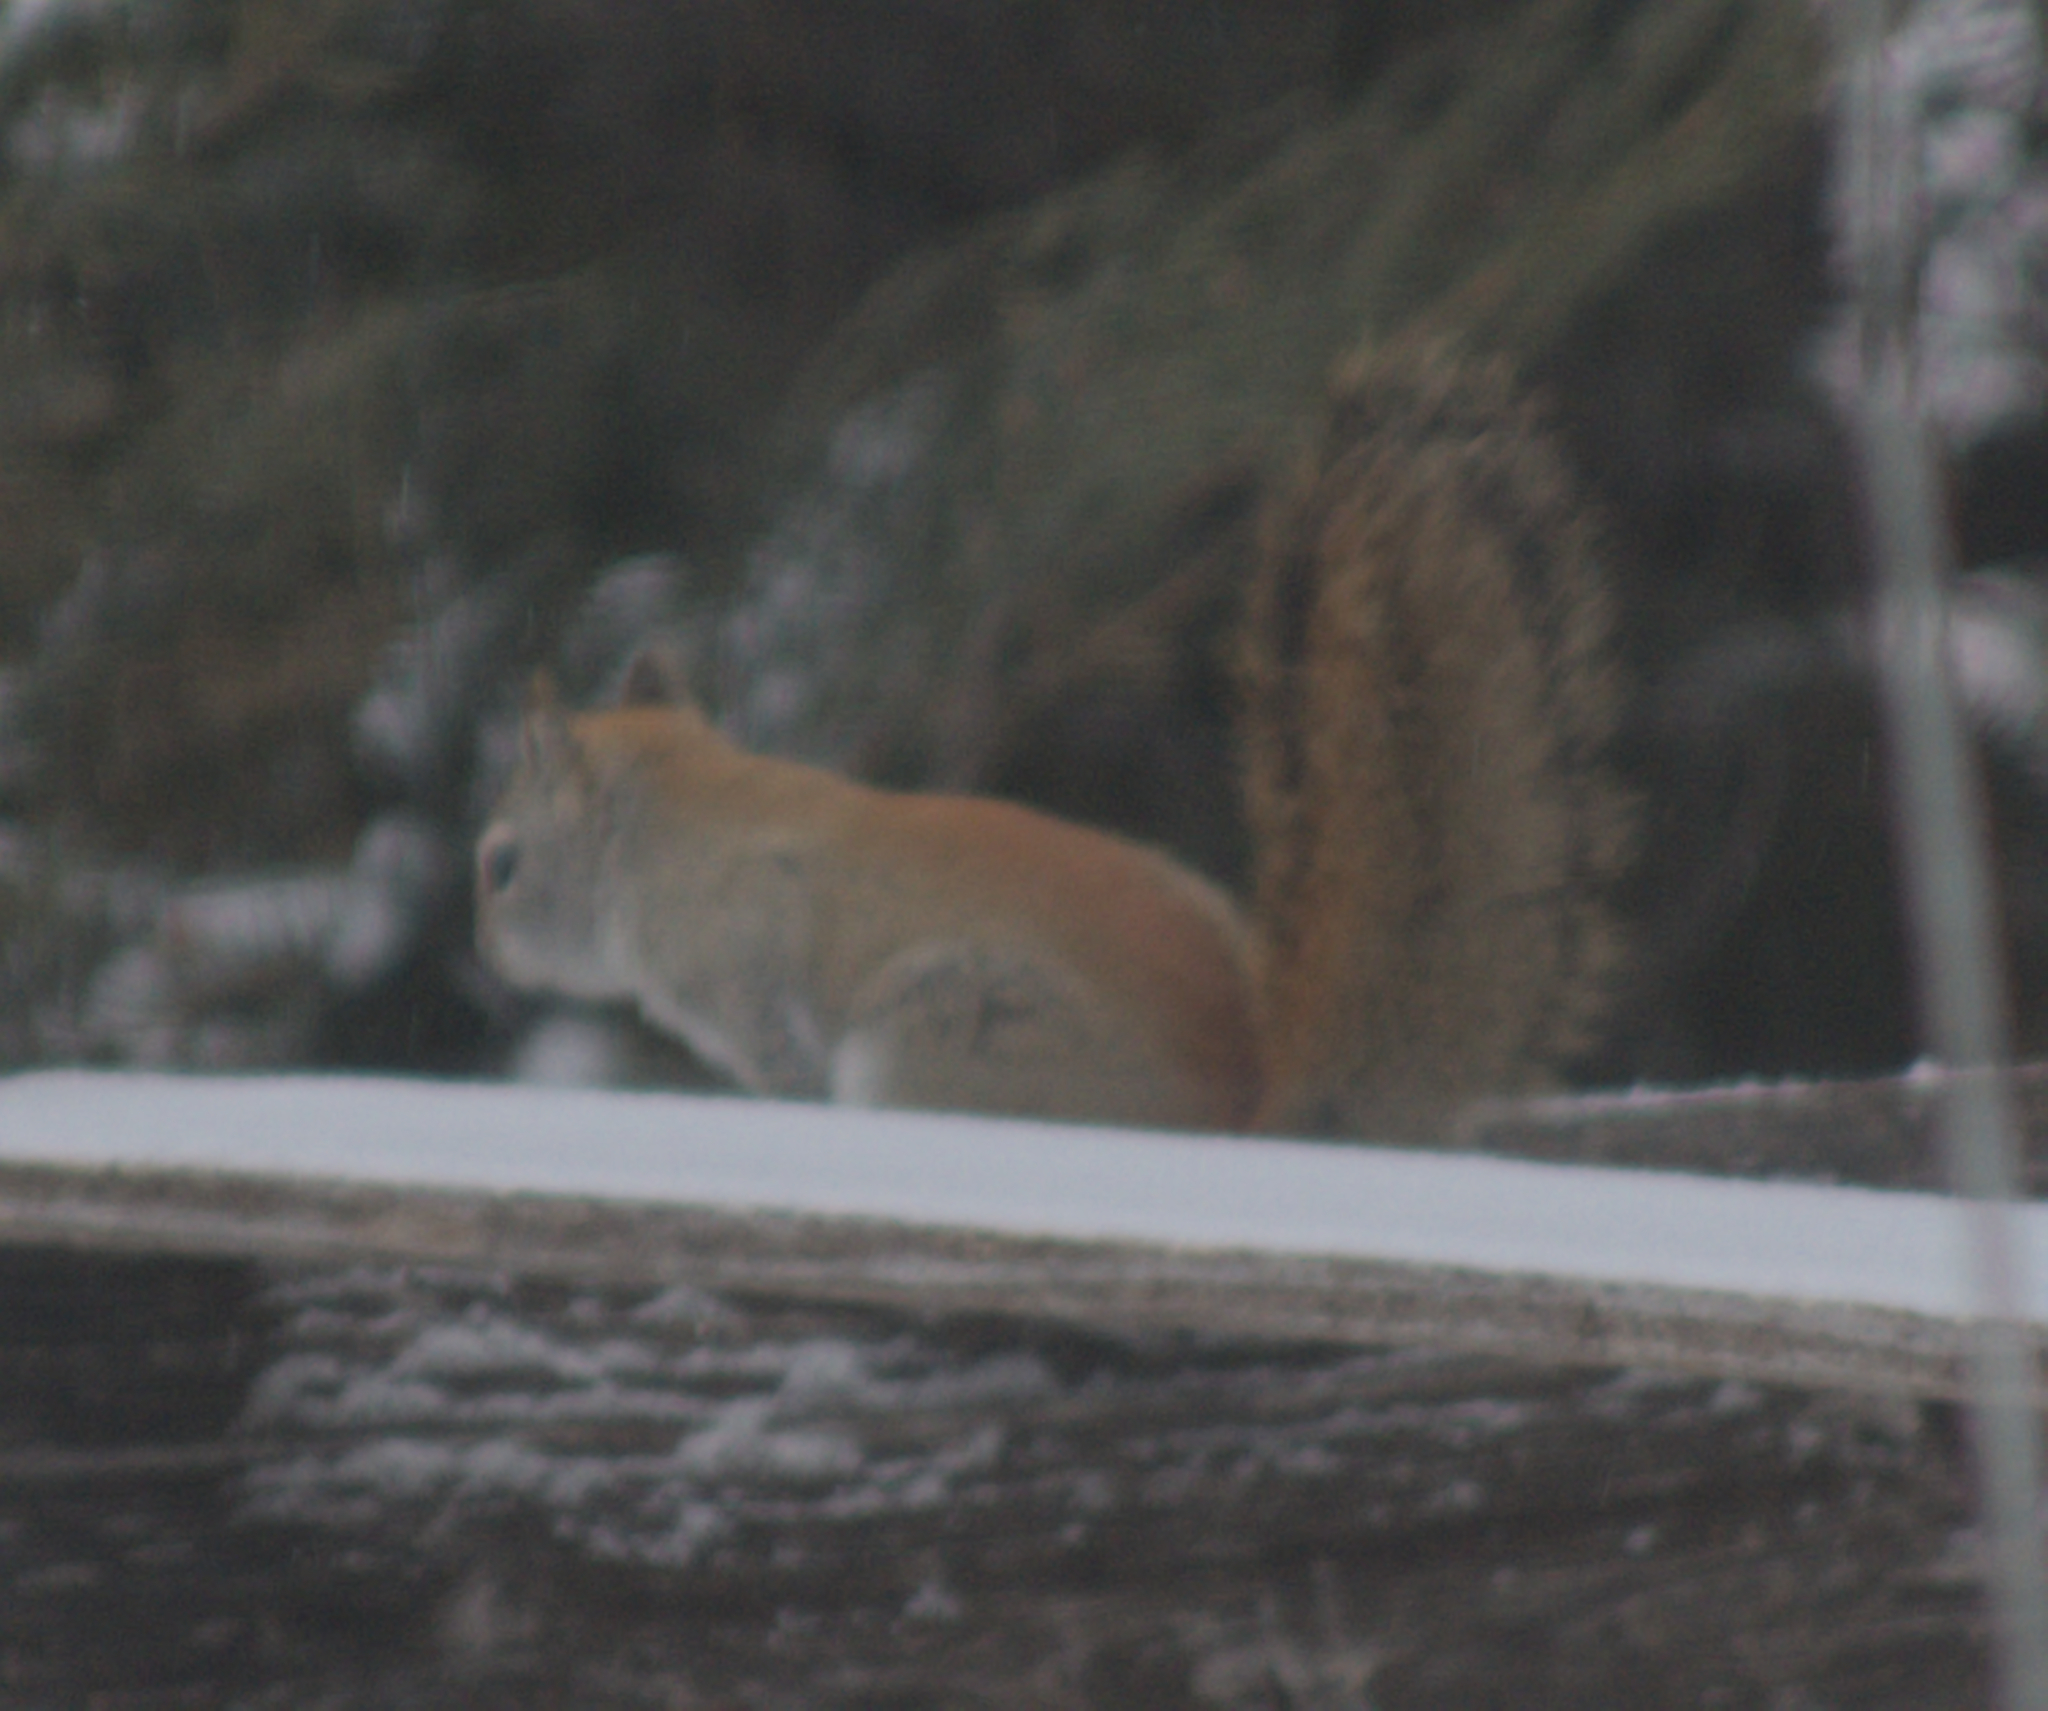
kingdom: Animalia
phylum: Chordata
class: Mammalia
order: Rodentia
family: Sciuridae
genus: Tamiasciurus
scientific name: Tamiasciurus hudsonicus
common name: Red squirrel
